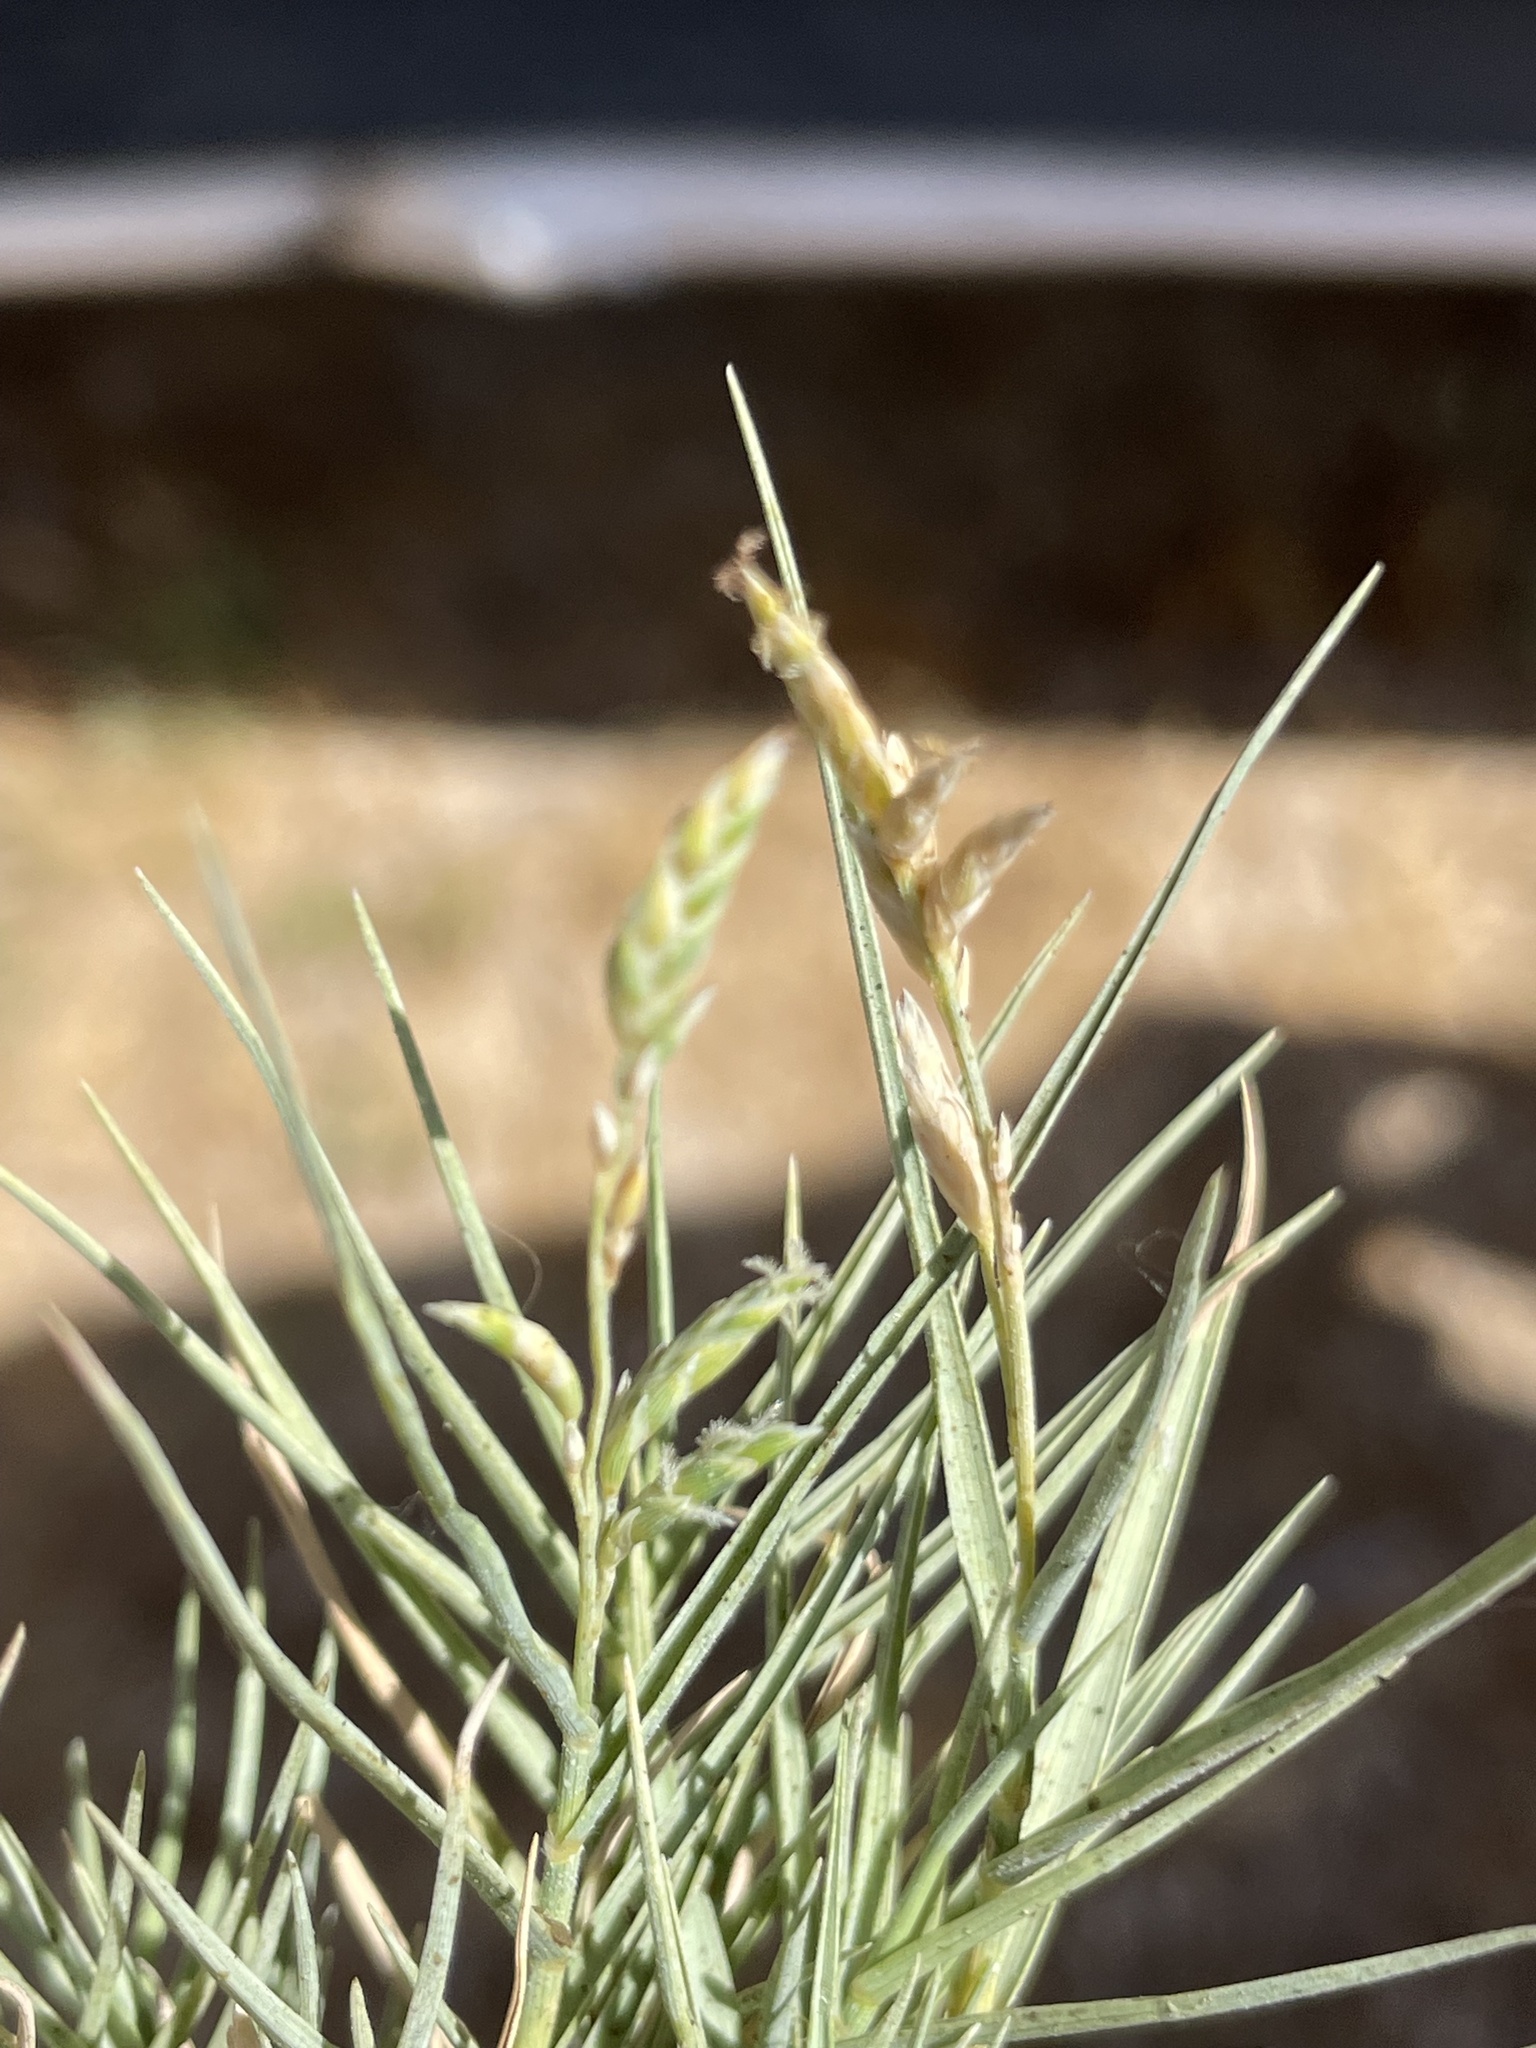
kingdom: Plantae
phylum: Tracheophyta
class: Liliopsida
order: Poales
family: Poaceae
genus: Distichlis
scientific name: Distichlis spicata
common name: Saltgrass
